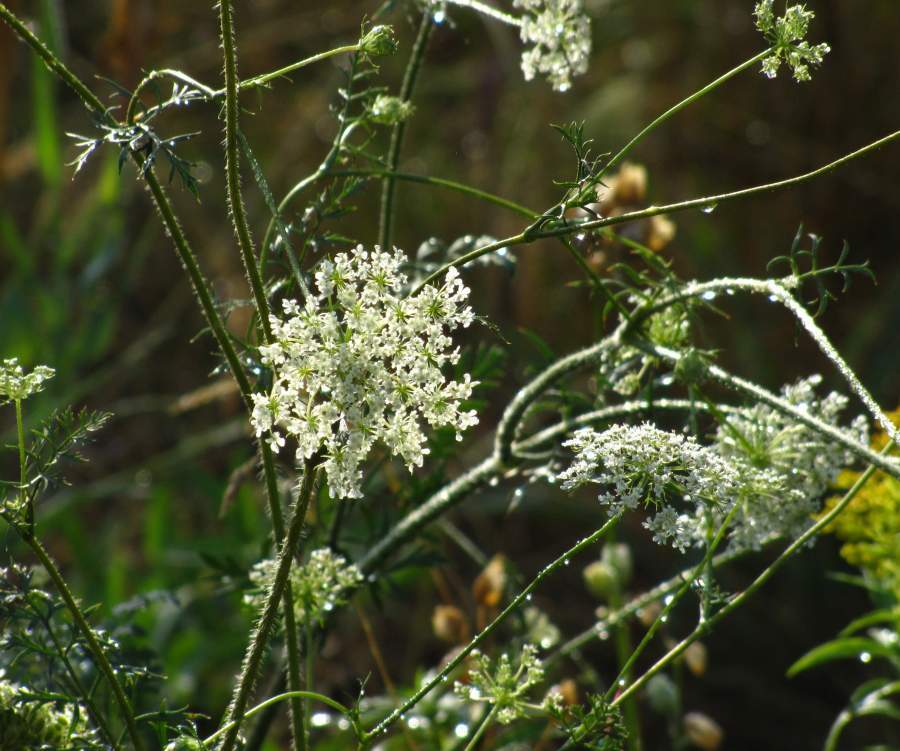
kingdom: Plantae
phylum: Tracheophyta
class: Magnoliopsida
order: Apiales
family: Apiaceae
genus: Daucus
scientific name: Daucus carota
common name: Wild carrot
